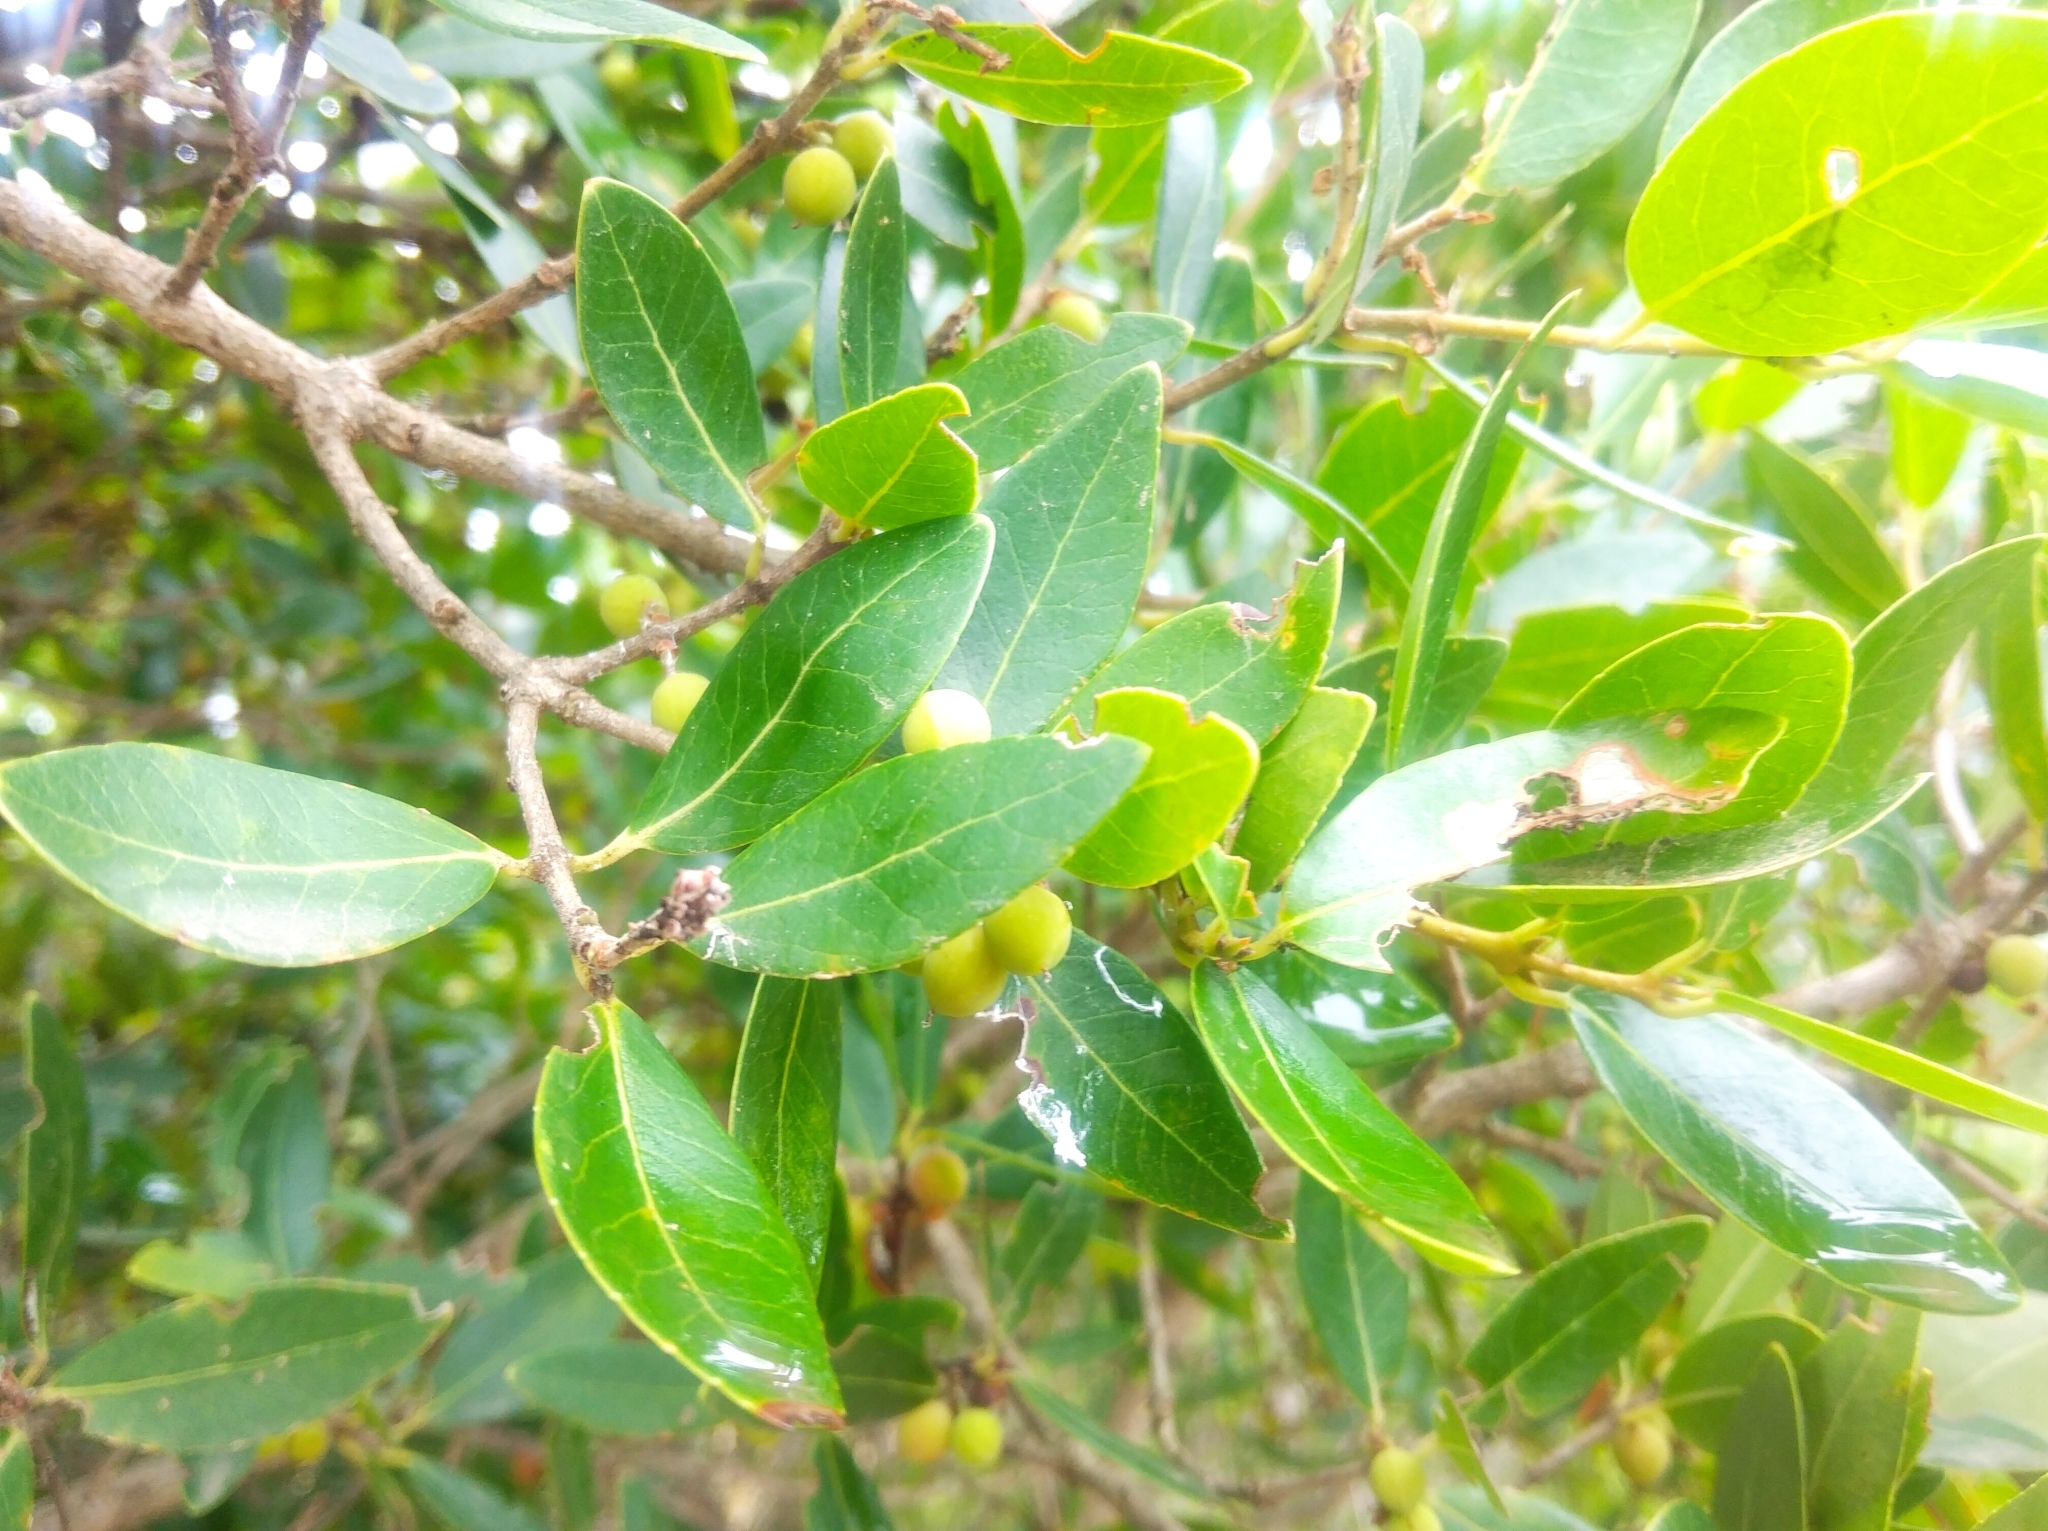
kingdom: Plantae
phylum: Tracheophyta
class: Magnoliopsida
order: Lamiales
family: Oleaceae
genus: Phillyrea
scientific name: Phillyrea latifolia
